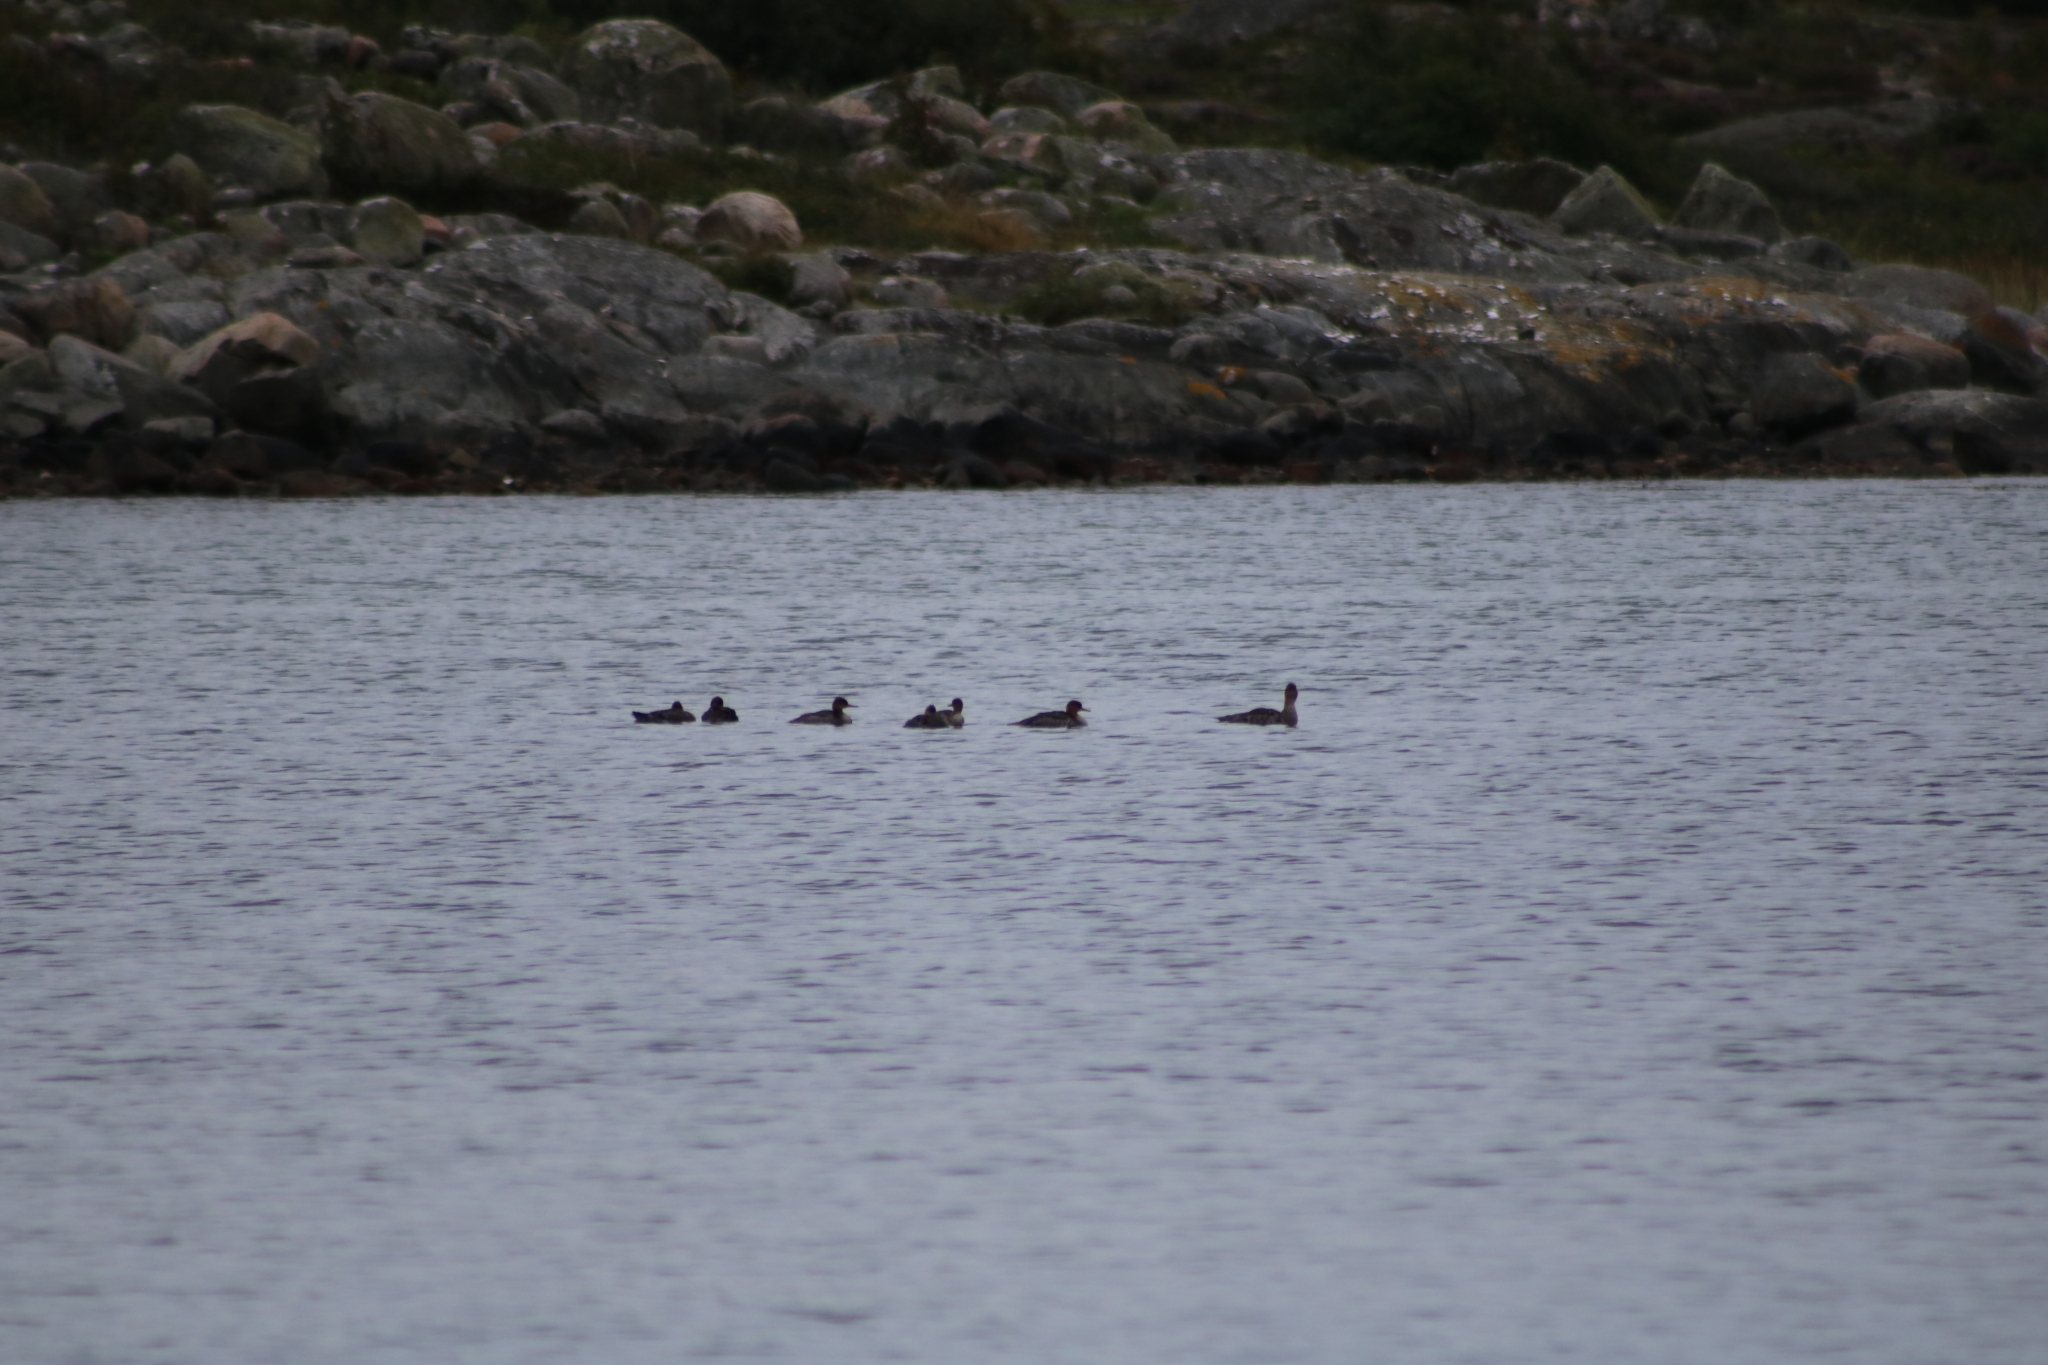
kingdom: Animalia
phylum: Chordata
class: Aves
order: Anseriformes
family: Anatidae
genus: Mergus
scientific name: Mergus serrator
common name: Red-breasted merganser
